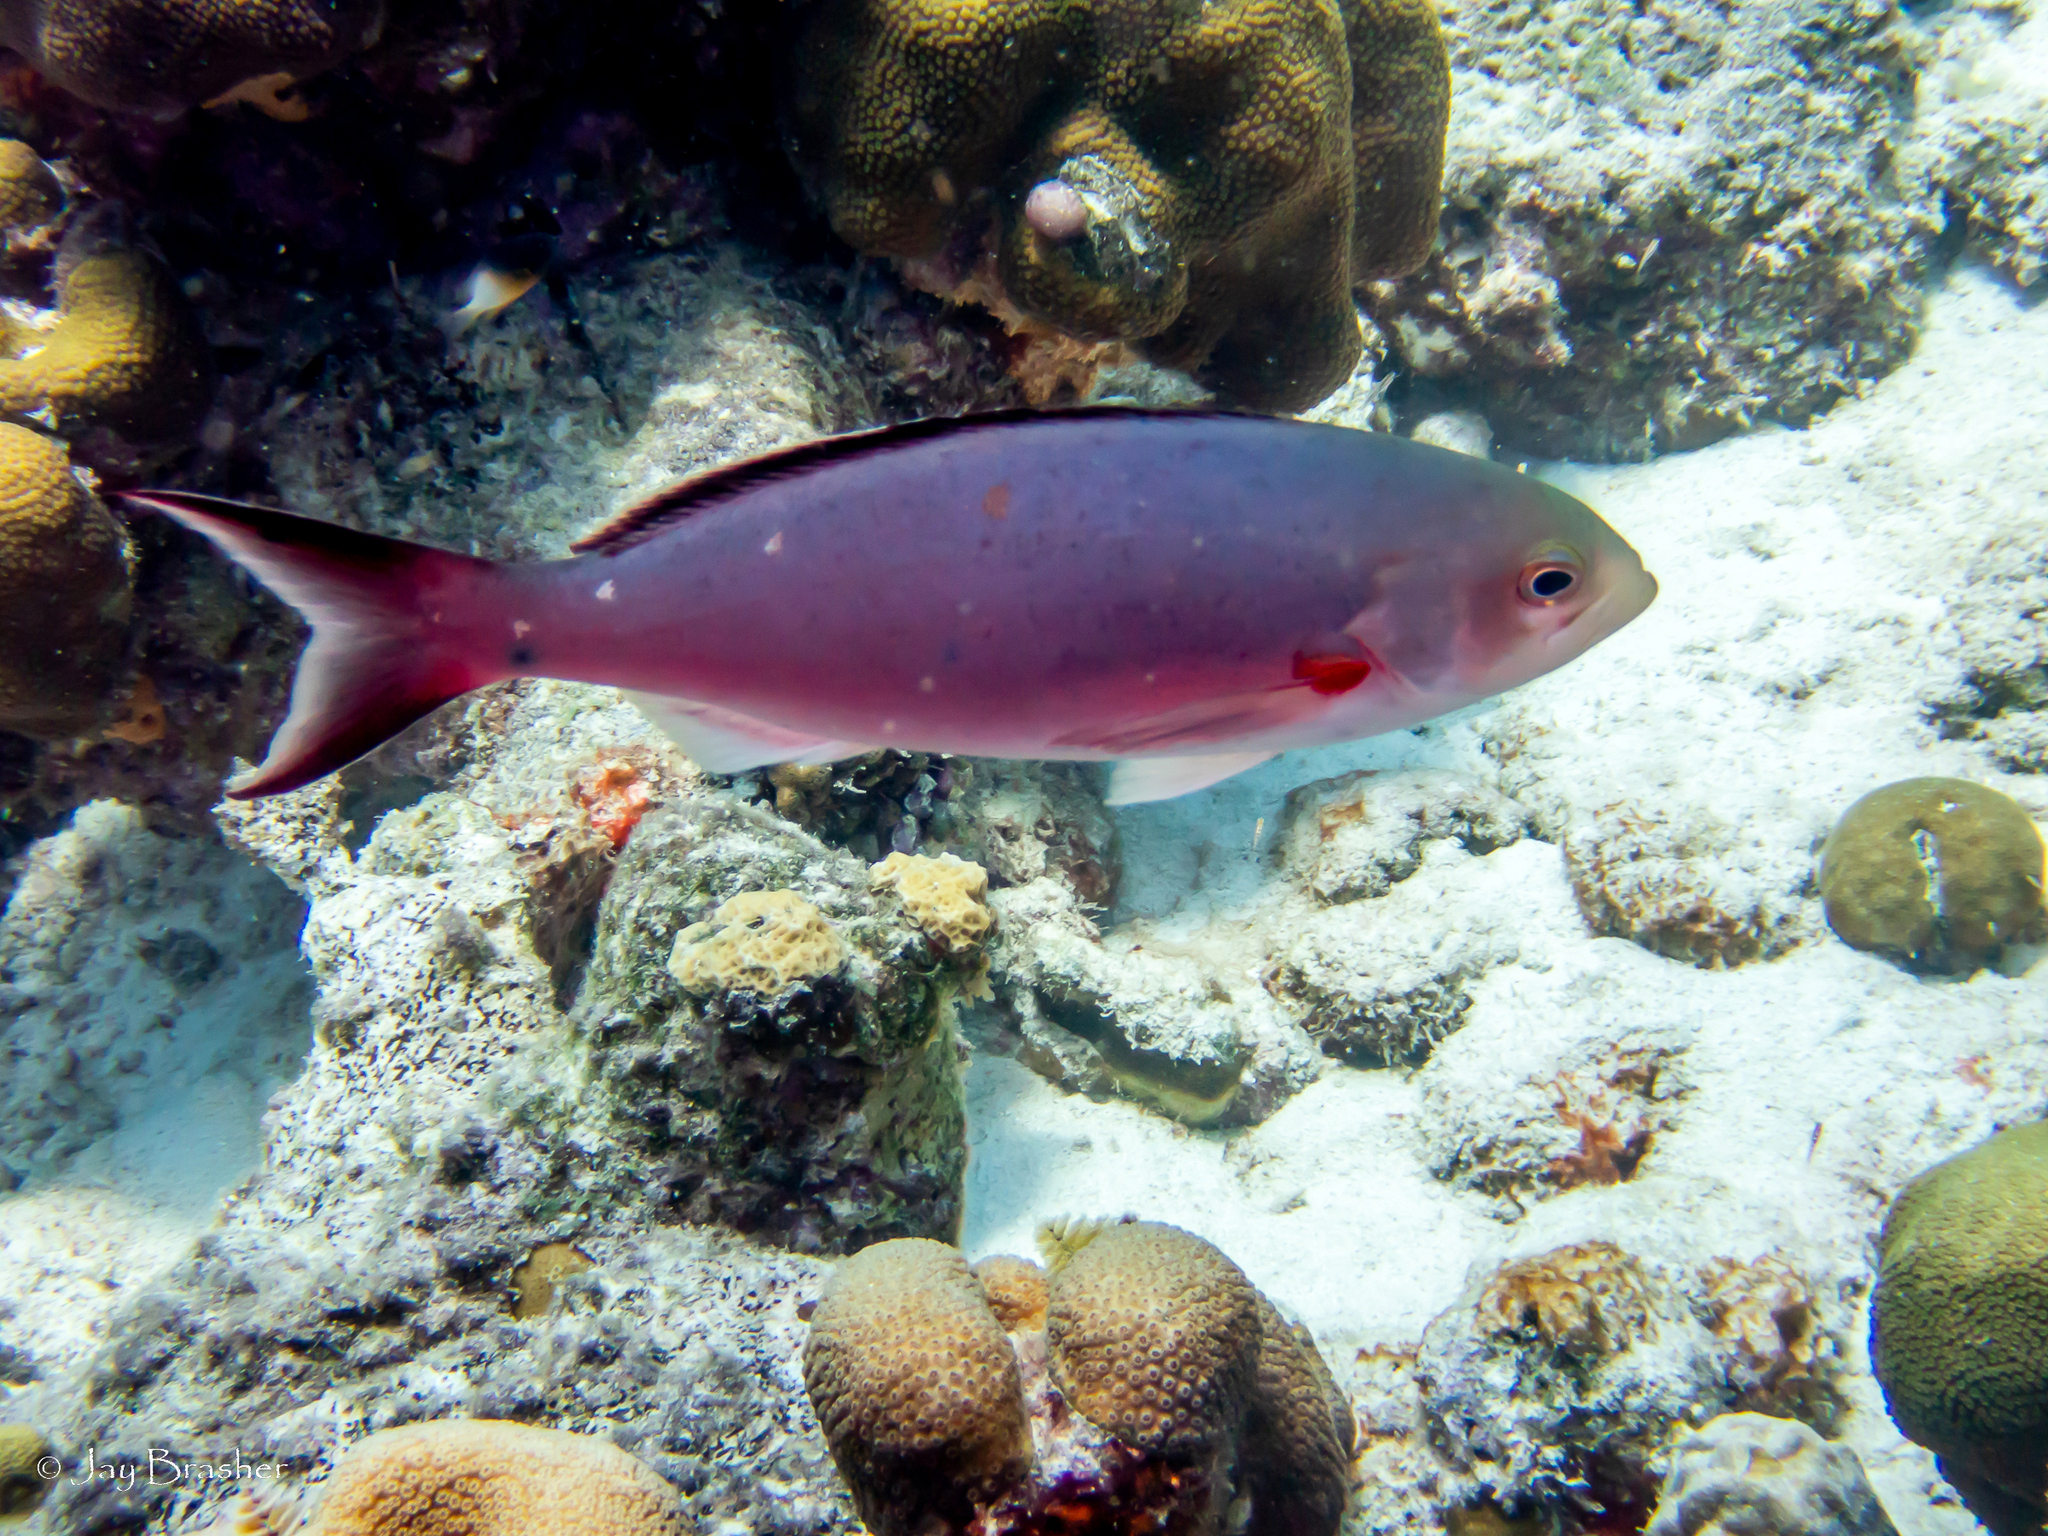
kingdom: Animalia
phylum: Chordata
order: Perciformes
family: Serranidae
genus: Paranthias
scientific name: Paranthias furcifer
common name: Creole-fish
